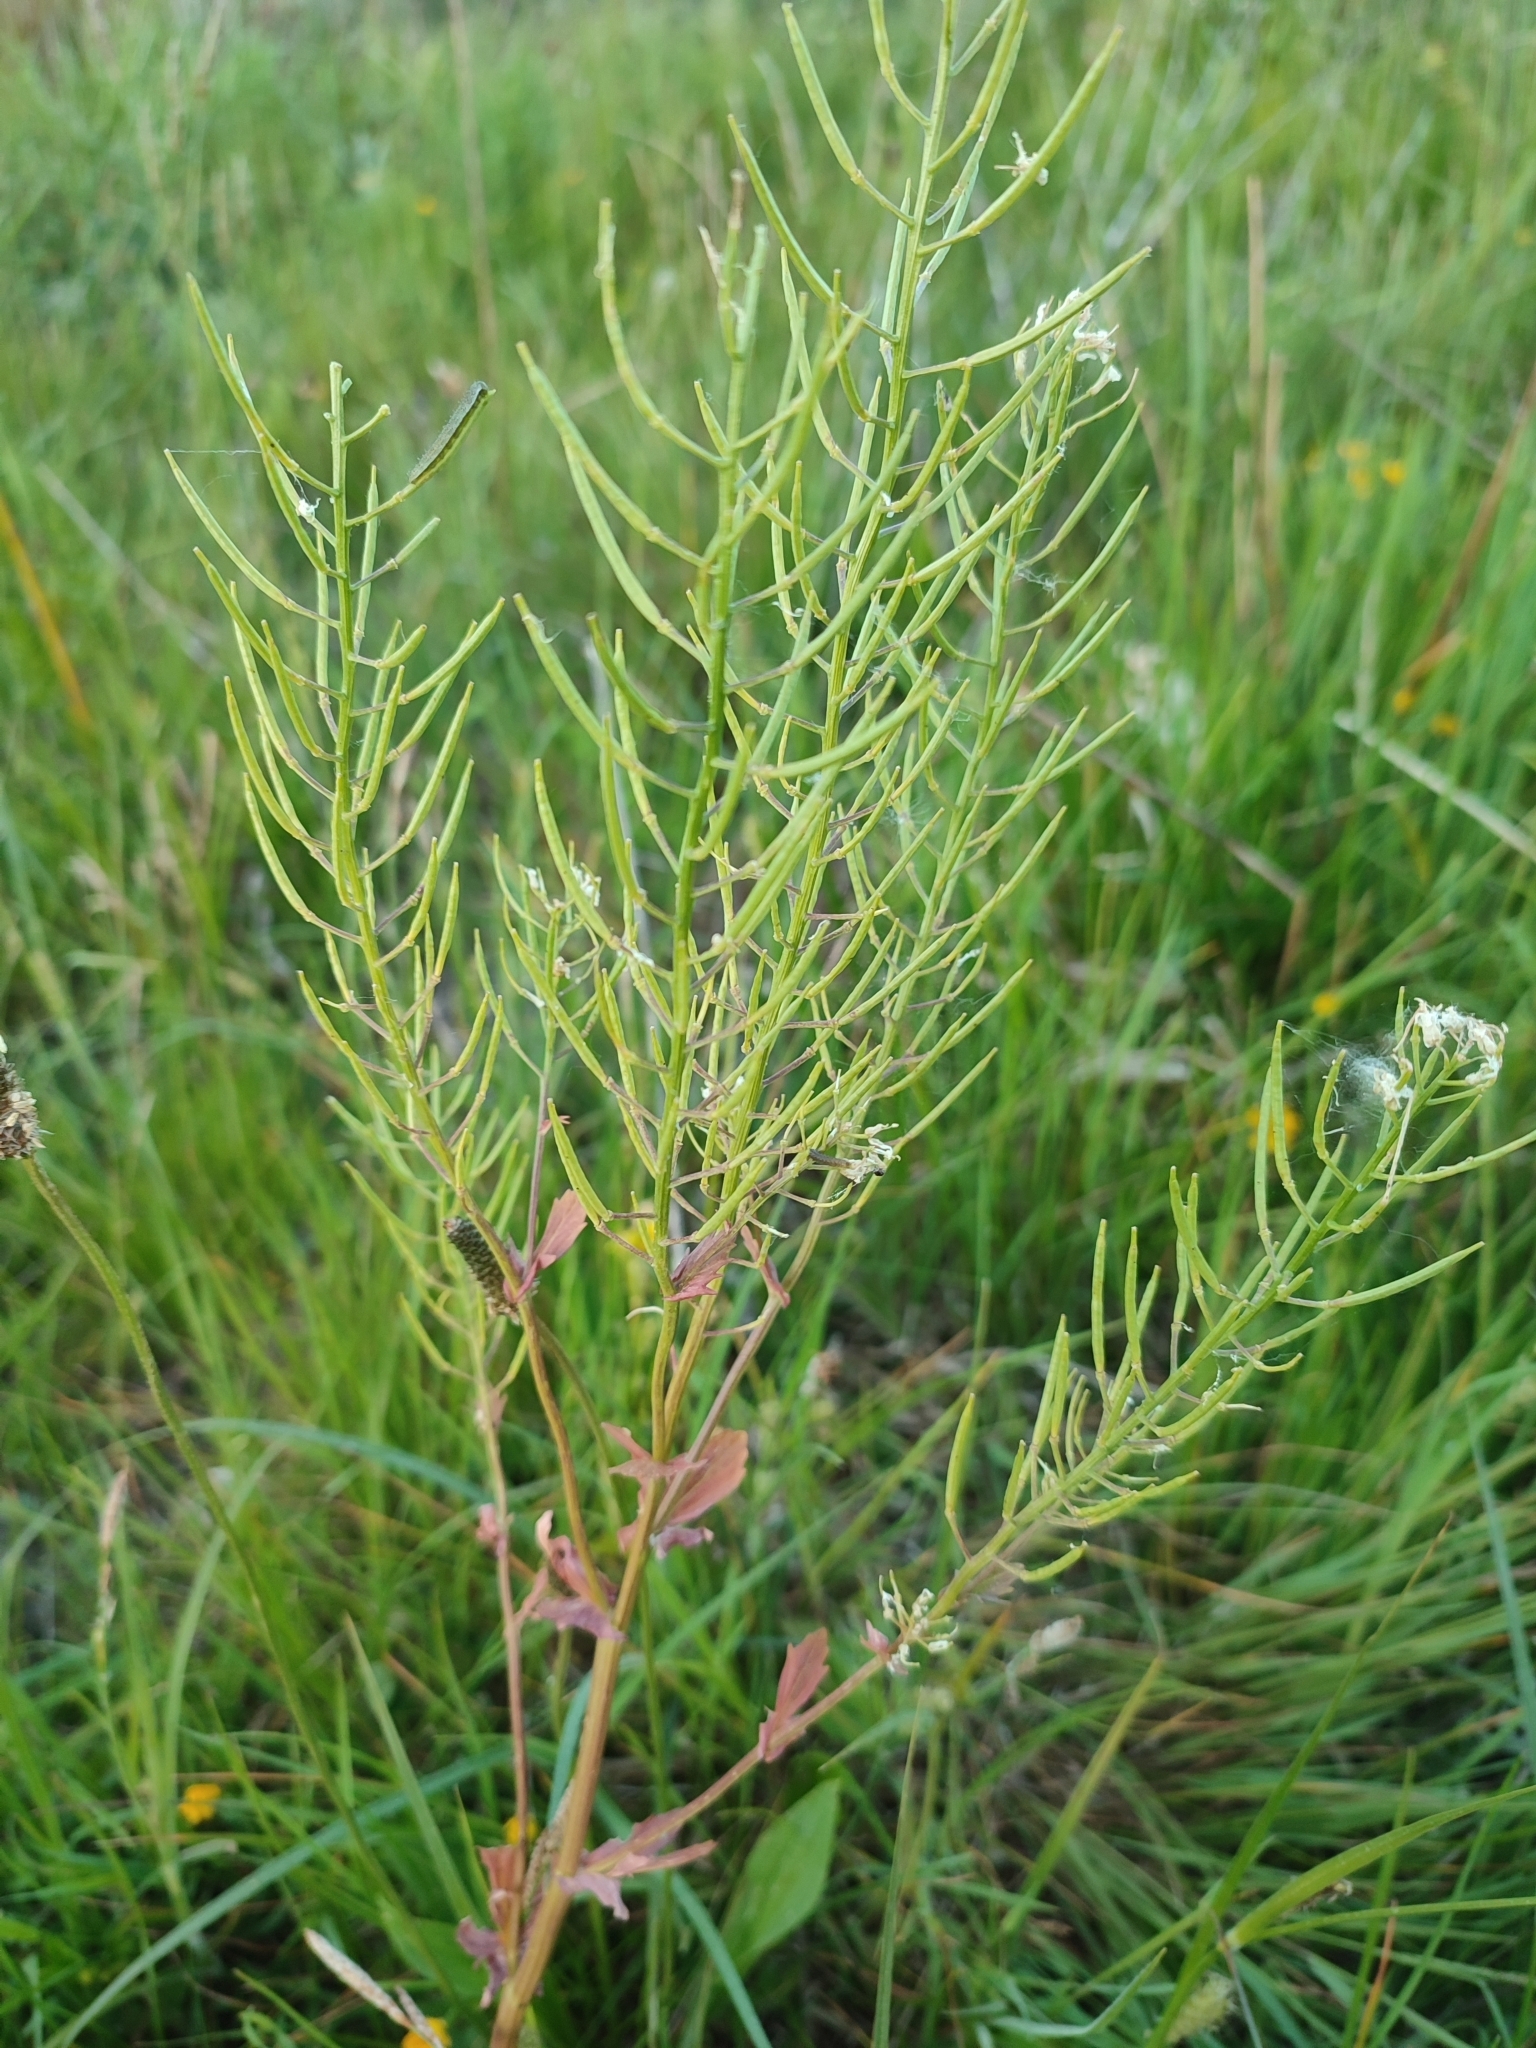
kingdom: Plantae
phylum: Tracheophyta
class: Magnoliopsida
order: Brassicales
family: Brassicaceae
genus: Barbarea
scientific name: Barbarea vulgaris
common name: Cressy-greens
